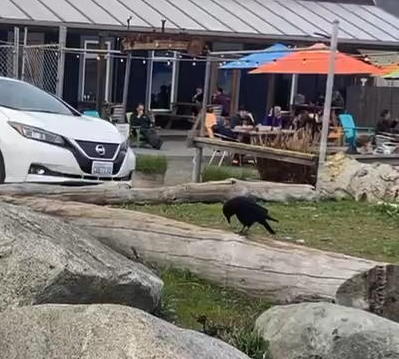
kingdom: Animalia
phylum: Chordata
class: Aves
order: Passeriformes
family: Corvidae
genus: Corvus
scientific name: Corvus brachyrhynchos
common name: American crow
